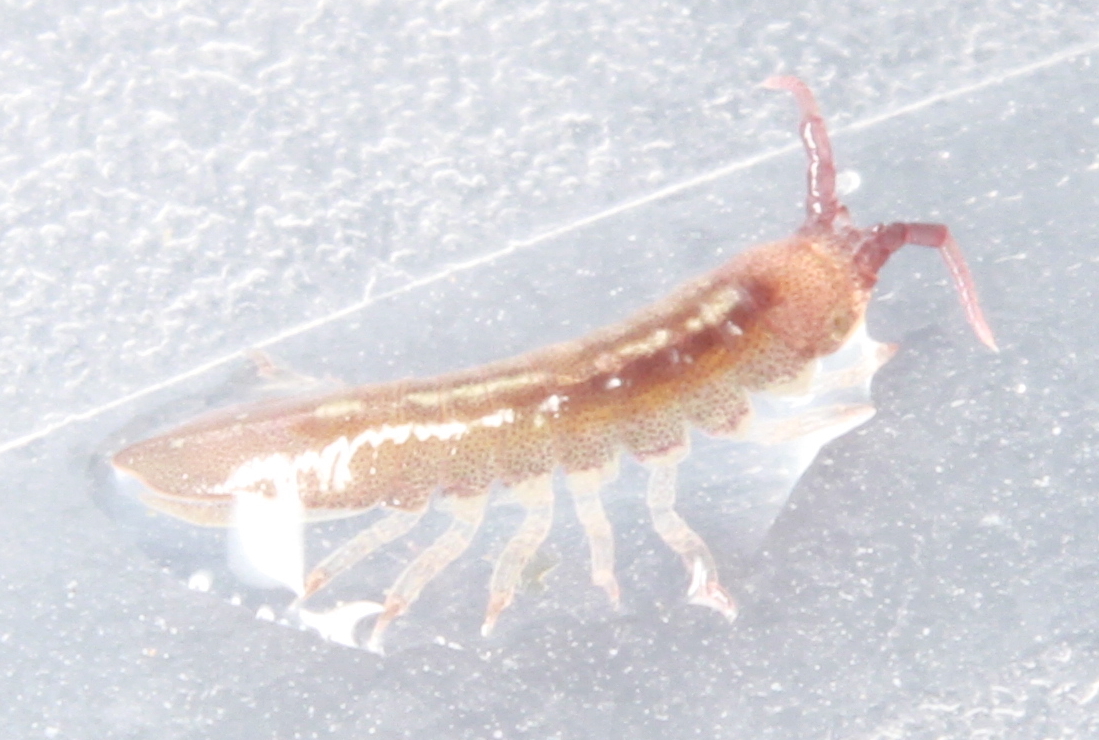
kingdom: Animalia
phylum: Arthropoda
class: Malacostraca
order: Isopoda
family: Idoteidae
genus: Idotea
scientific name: Idotea granulosa
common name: Granular marine isopod
